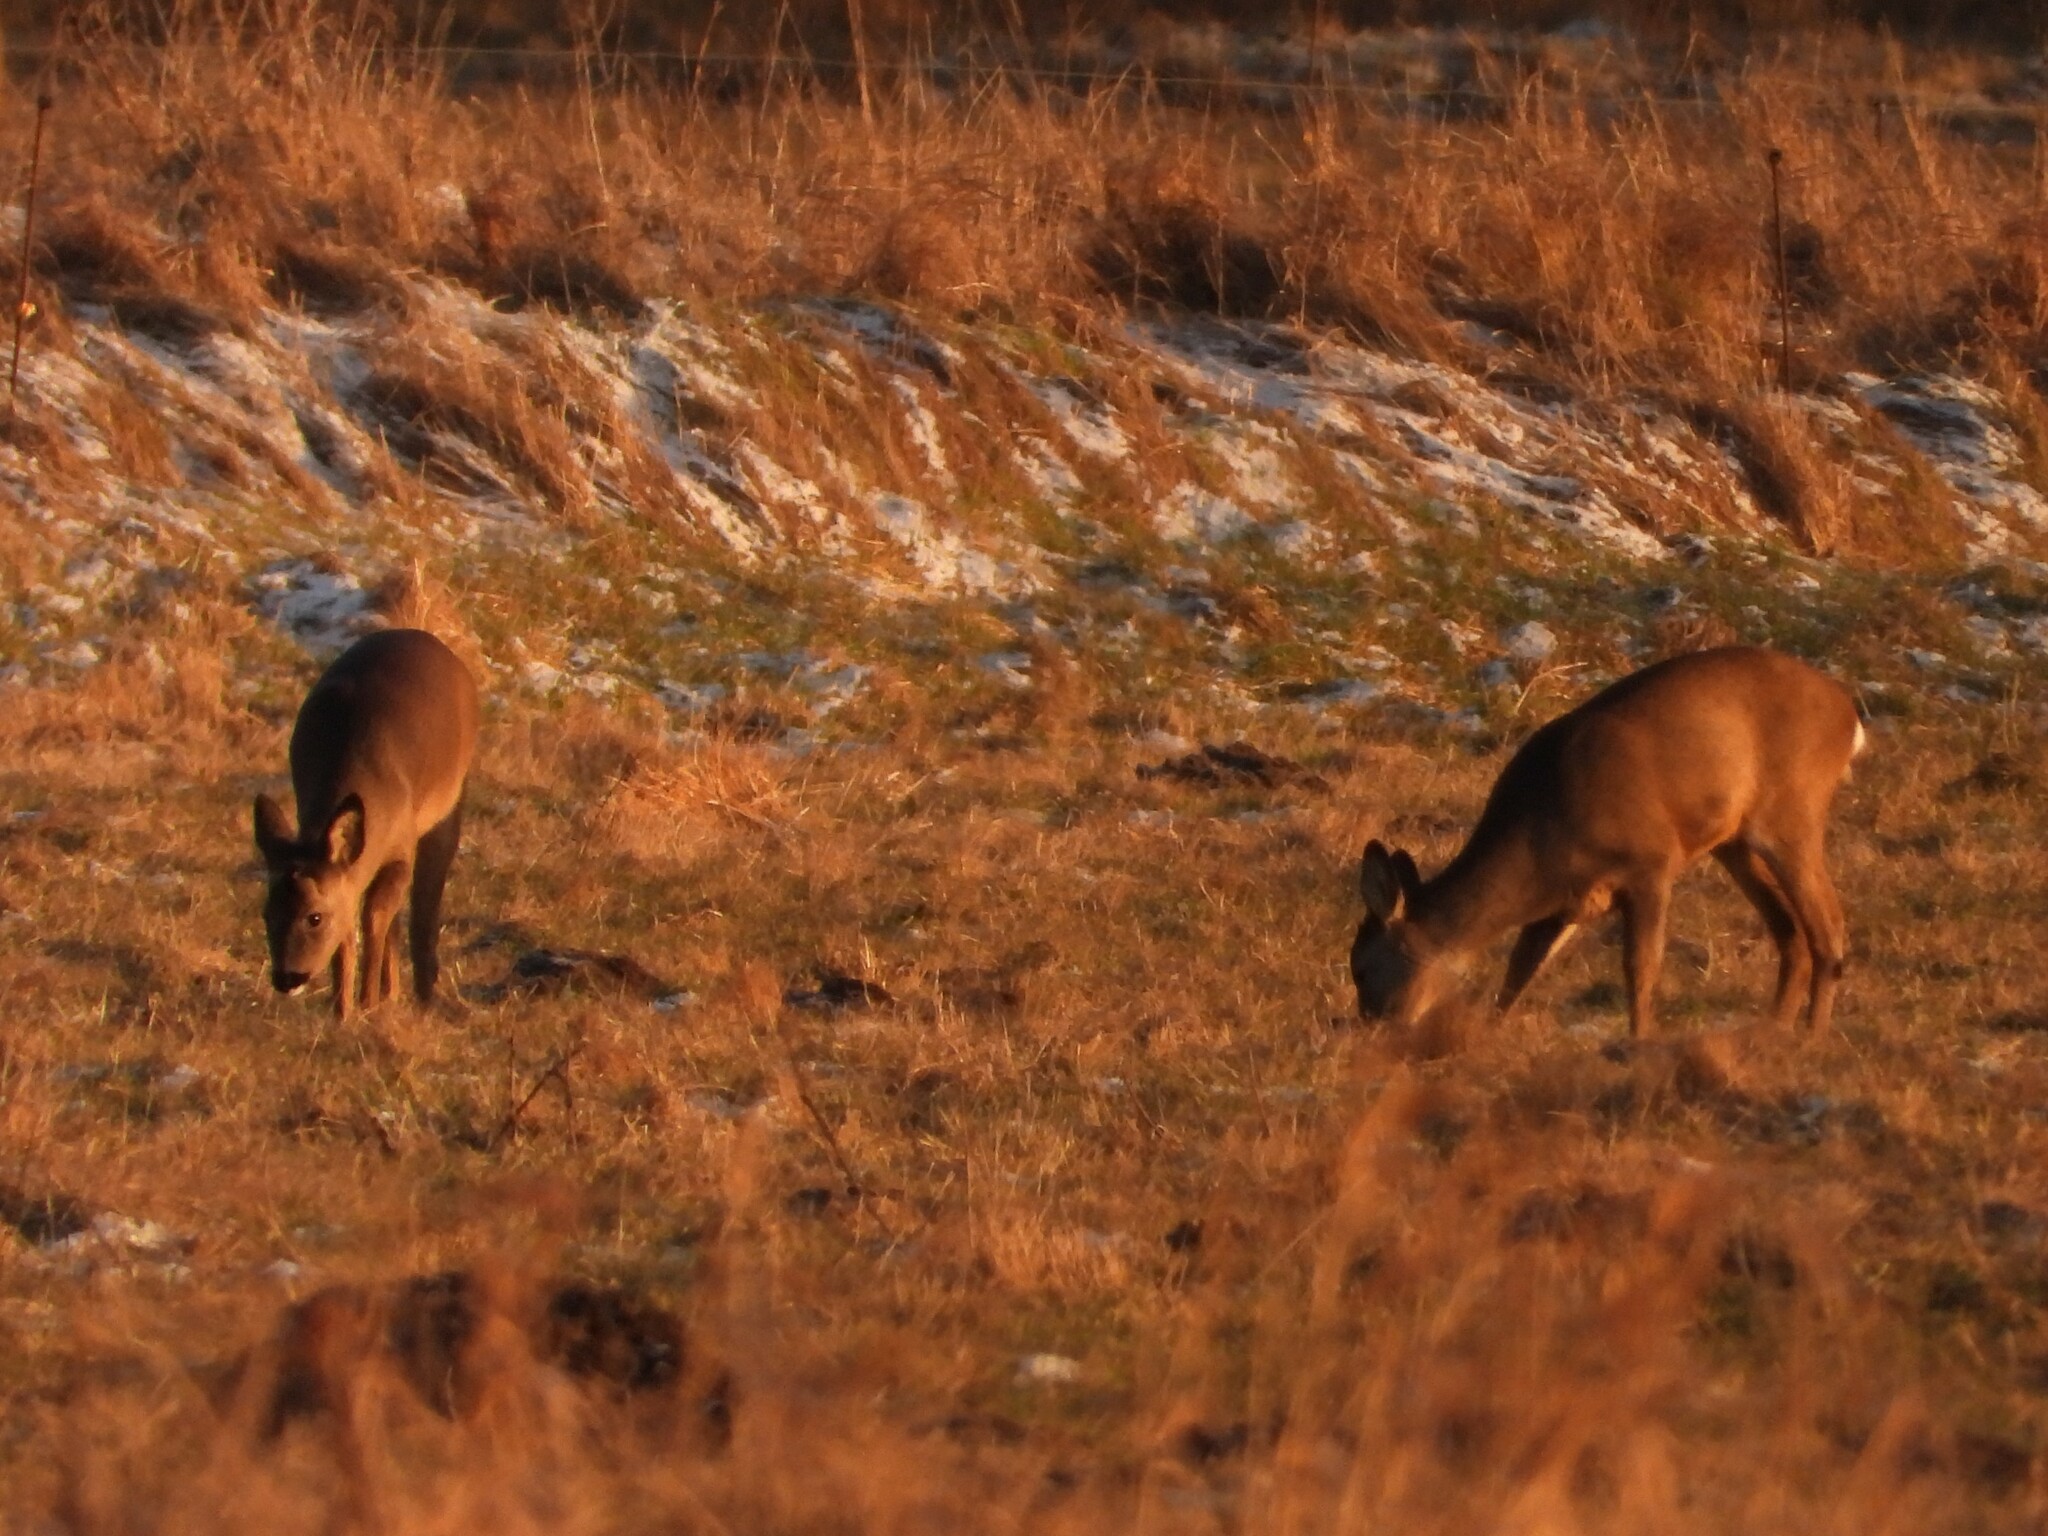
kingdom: Animalia
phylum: Chordata
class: Mammalia
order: Artiodactyla
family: Cervidae
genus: Capreolus
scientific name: Capreolus capreolus
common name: Western roe deer
